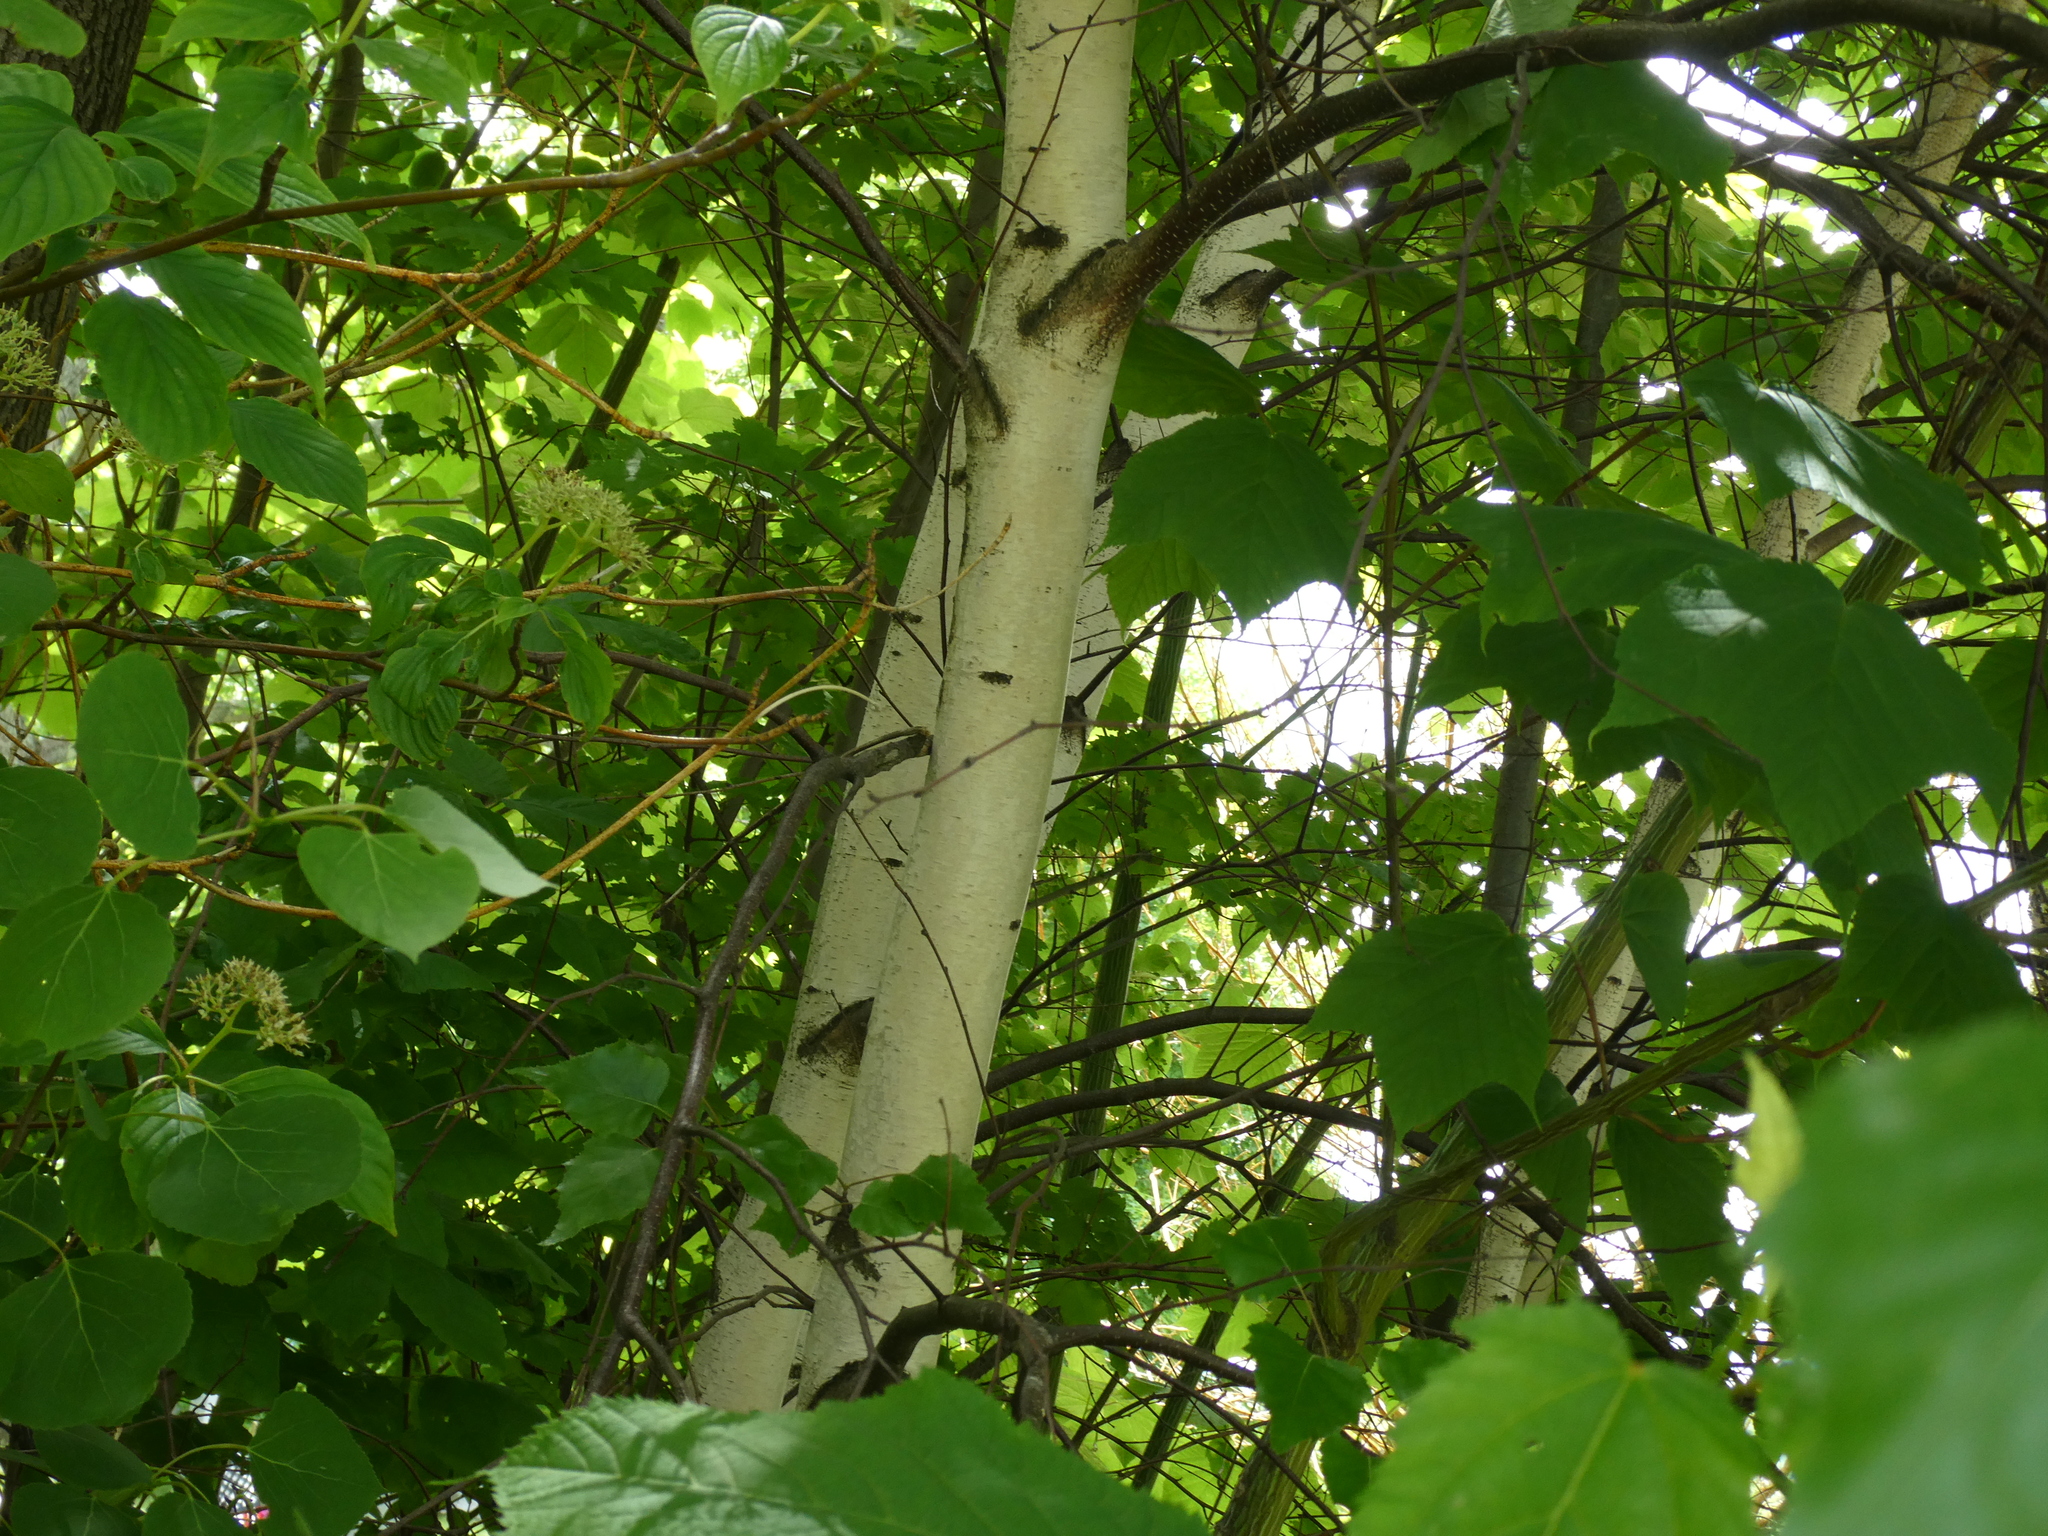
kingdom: Plantae
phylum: Tracheophyta
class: Magnoliopsida
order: Fagales
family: Betulaceae
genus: Betula
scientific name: Betula populifolia
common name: Fire birch
